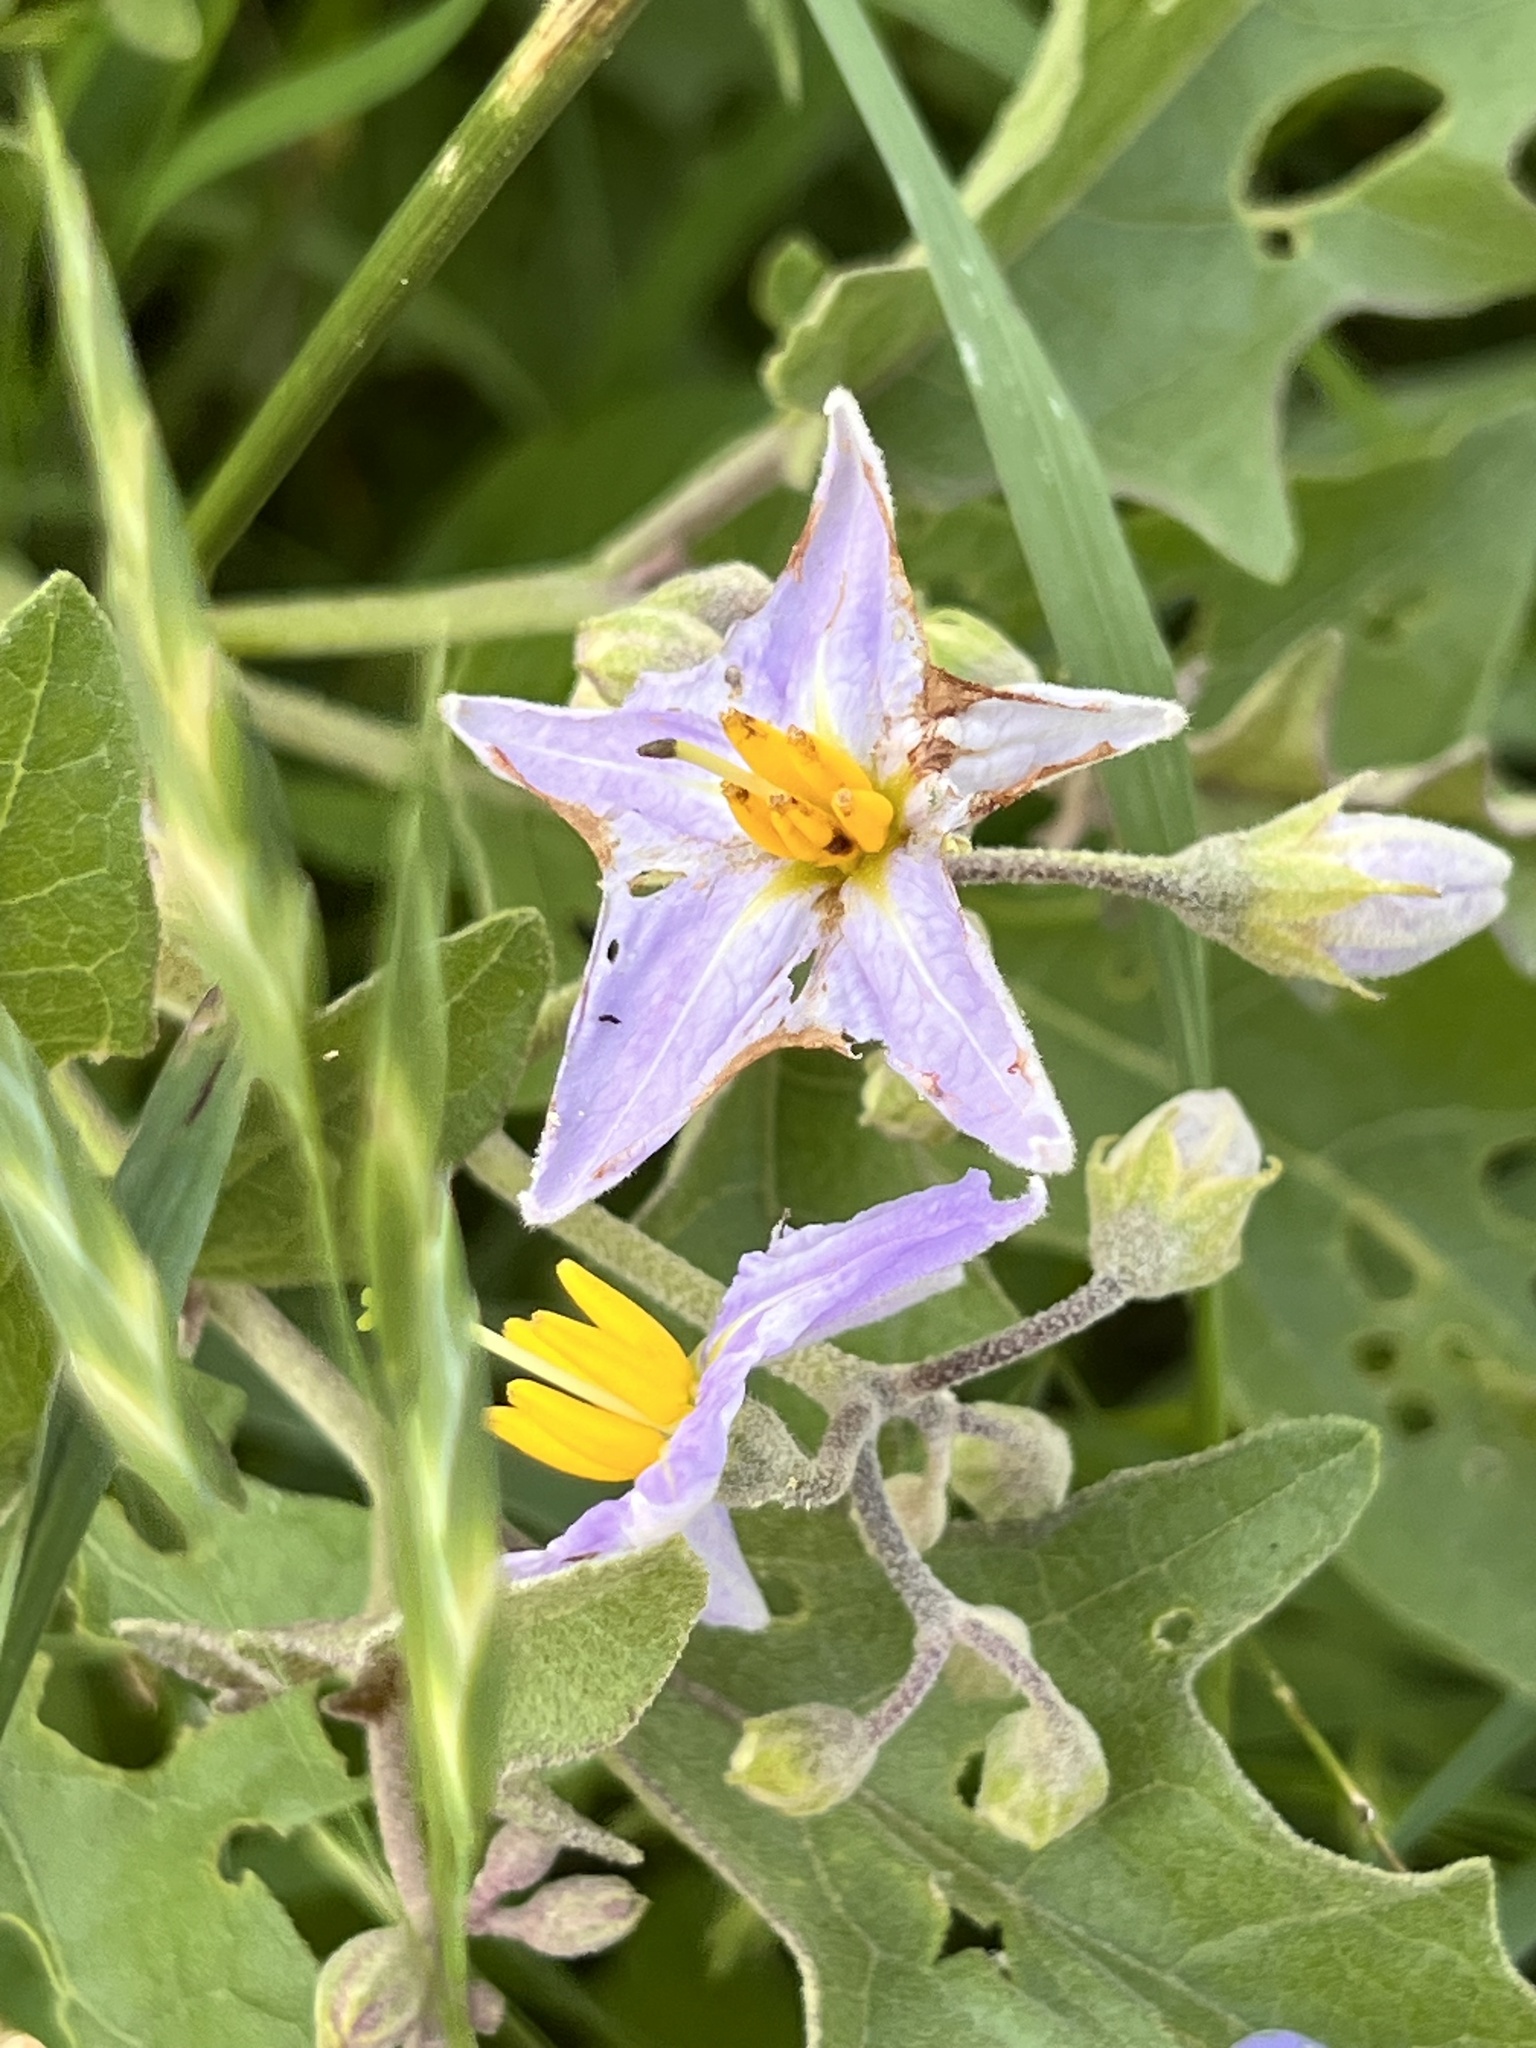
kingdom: Plantae
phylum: Tracheophyta
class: Magnoliopsida
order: Solanales
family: Solanaceae
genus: Solanum
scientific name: Solanum dimidiatum
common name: Carolina horse-nettle
